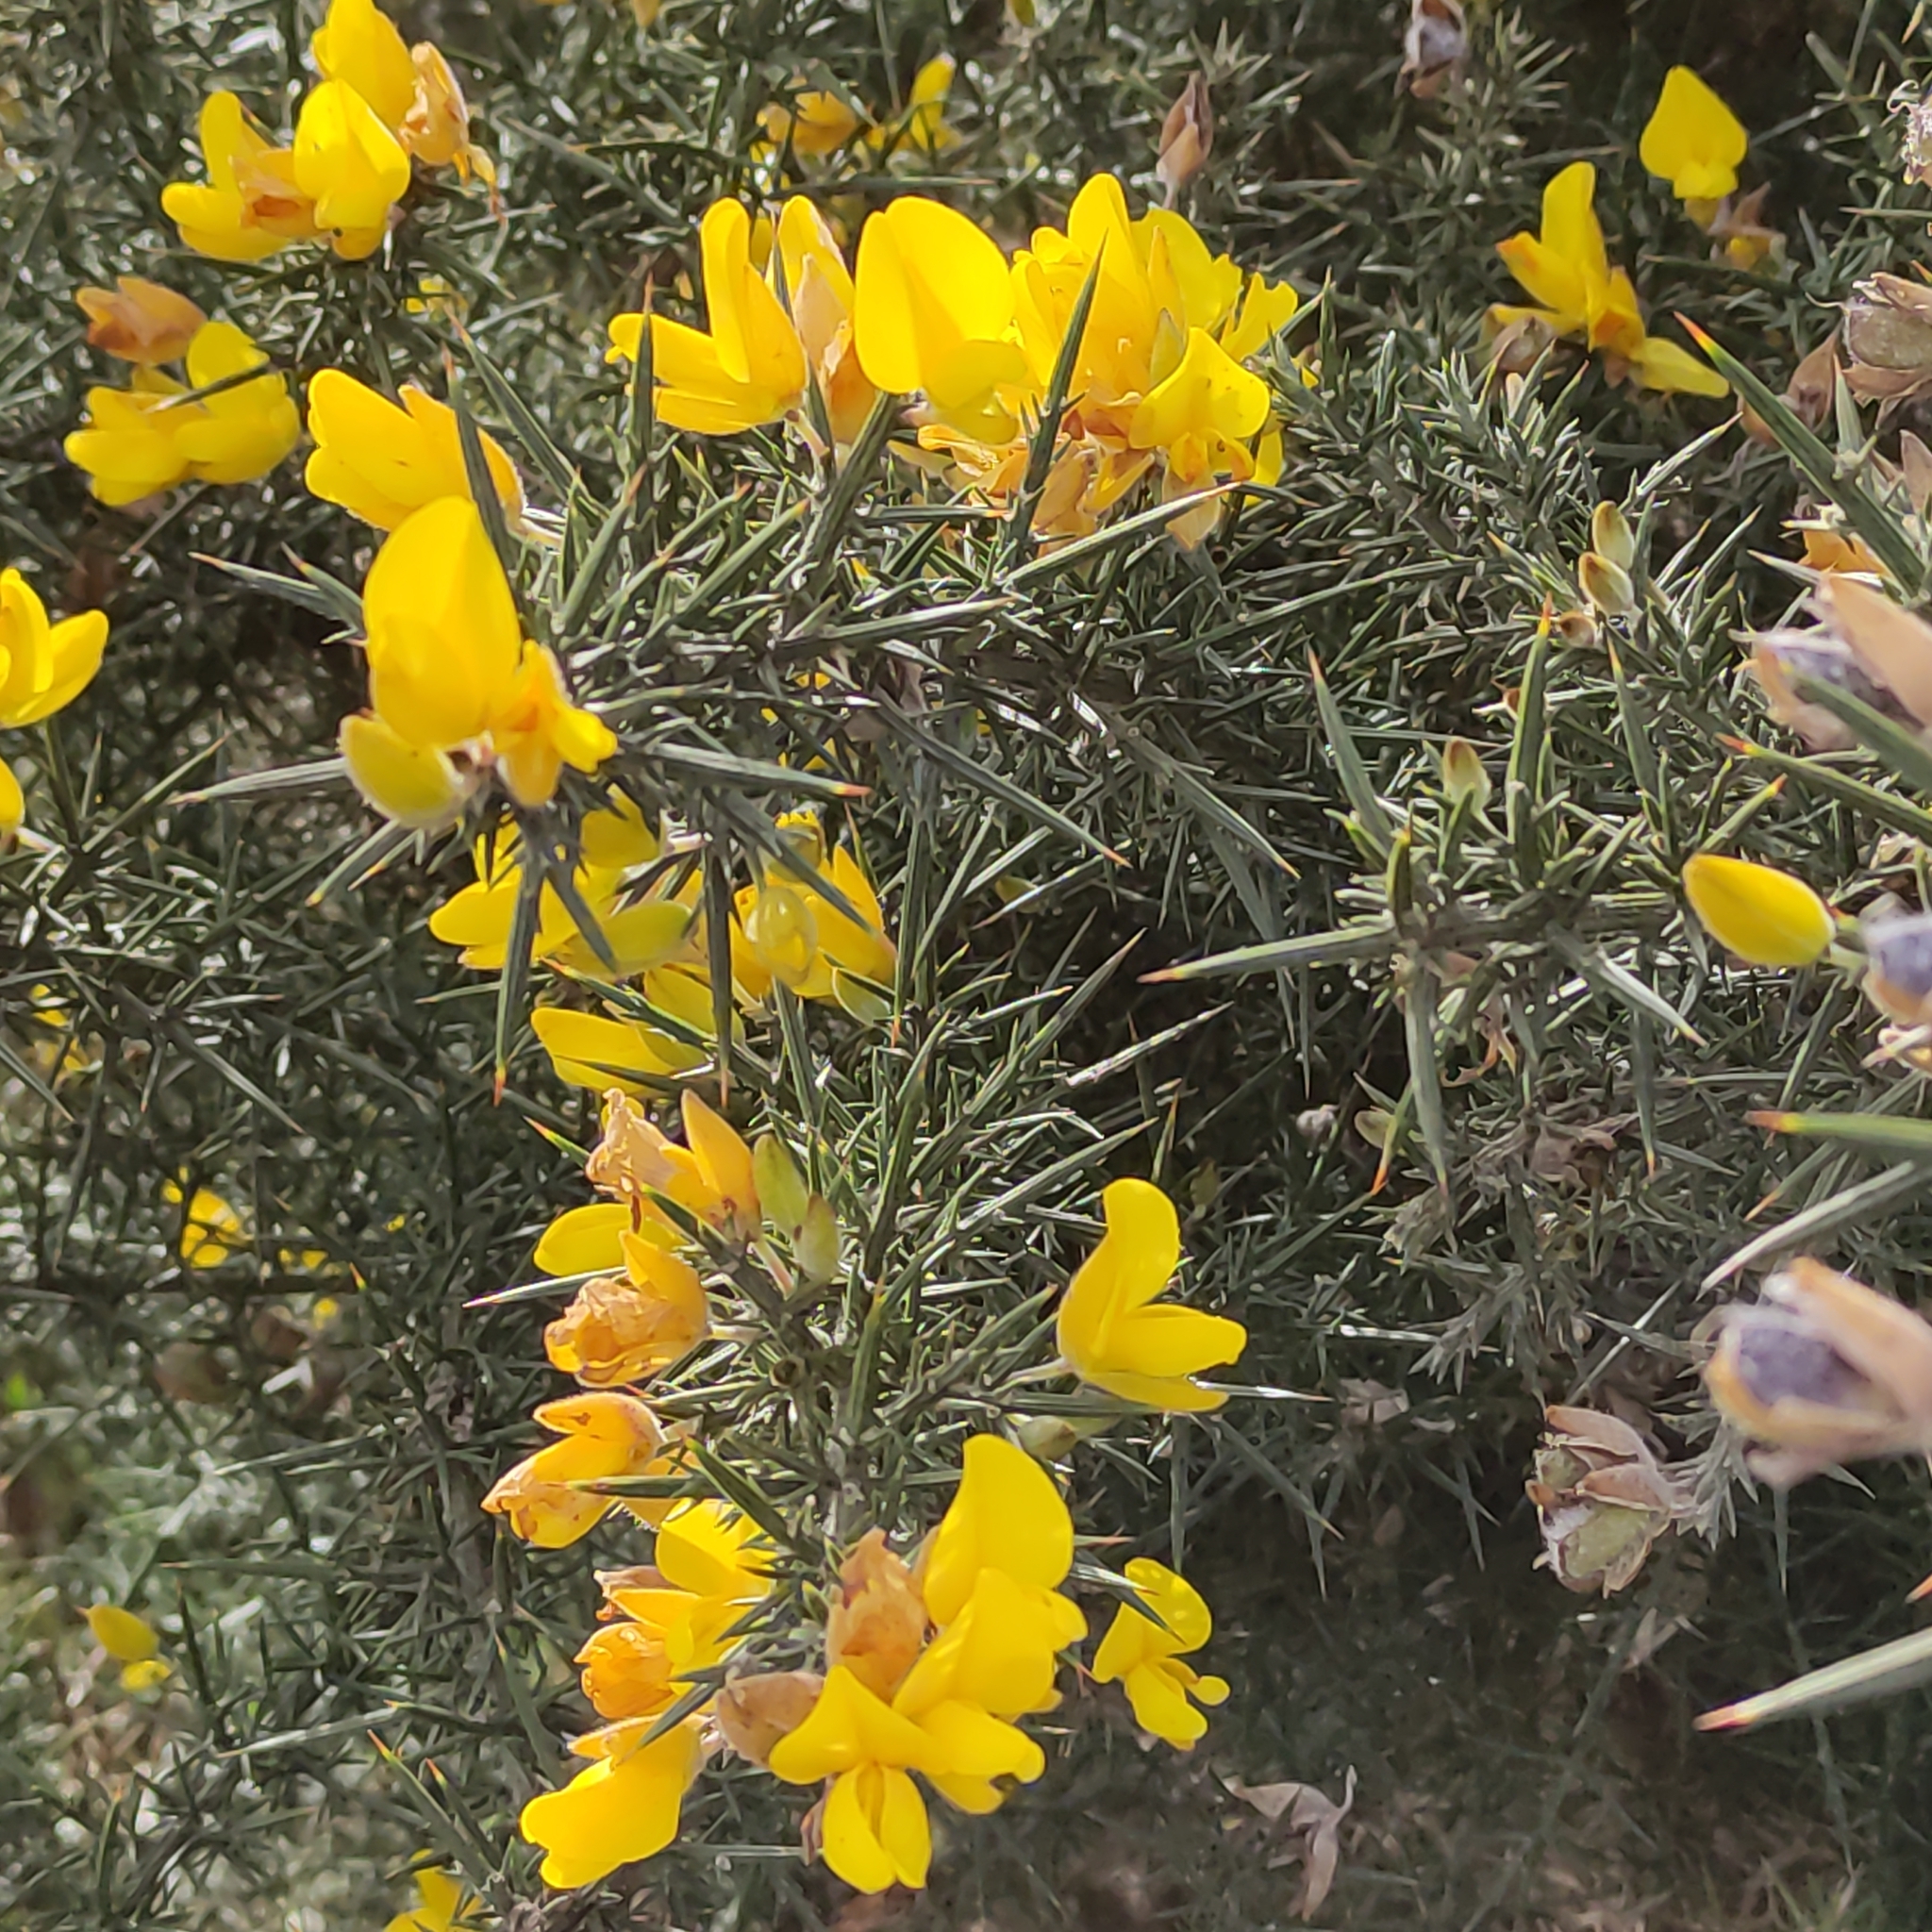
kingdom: Plantae
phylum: Tracheophyta
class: Magnoliopsida
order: Fabales
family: Fabaceae
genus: Ulex
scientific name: Ulex europaeus
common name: Common gorse
